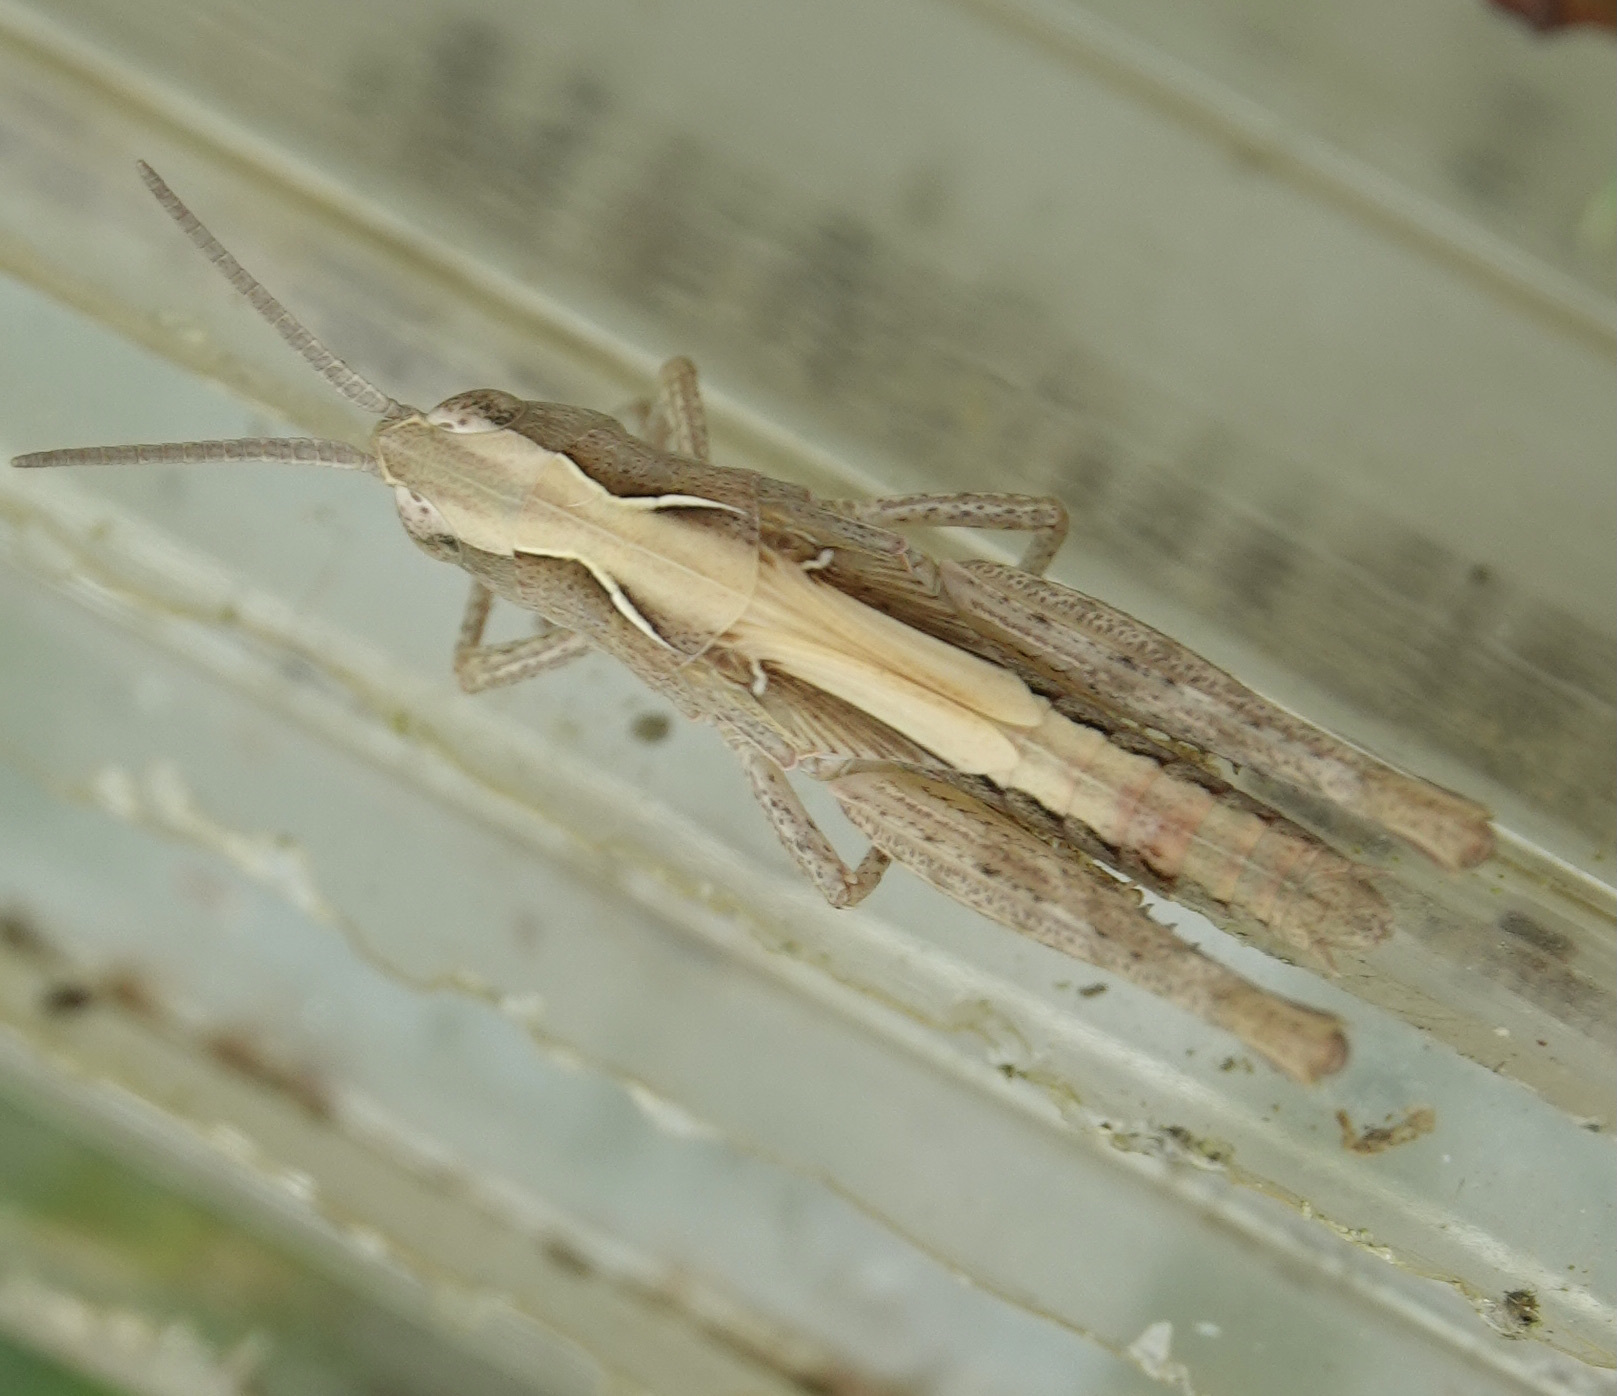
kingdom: Animalia
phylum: Arthropoda
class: Insecta
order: Orthoptera
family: Acrididae
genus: Chorthippus
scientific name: Chorthippus brunneus
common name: Field grasshopper
